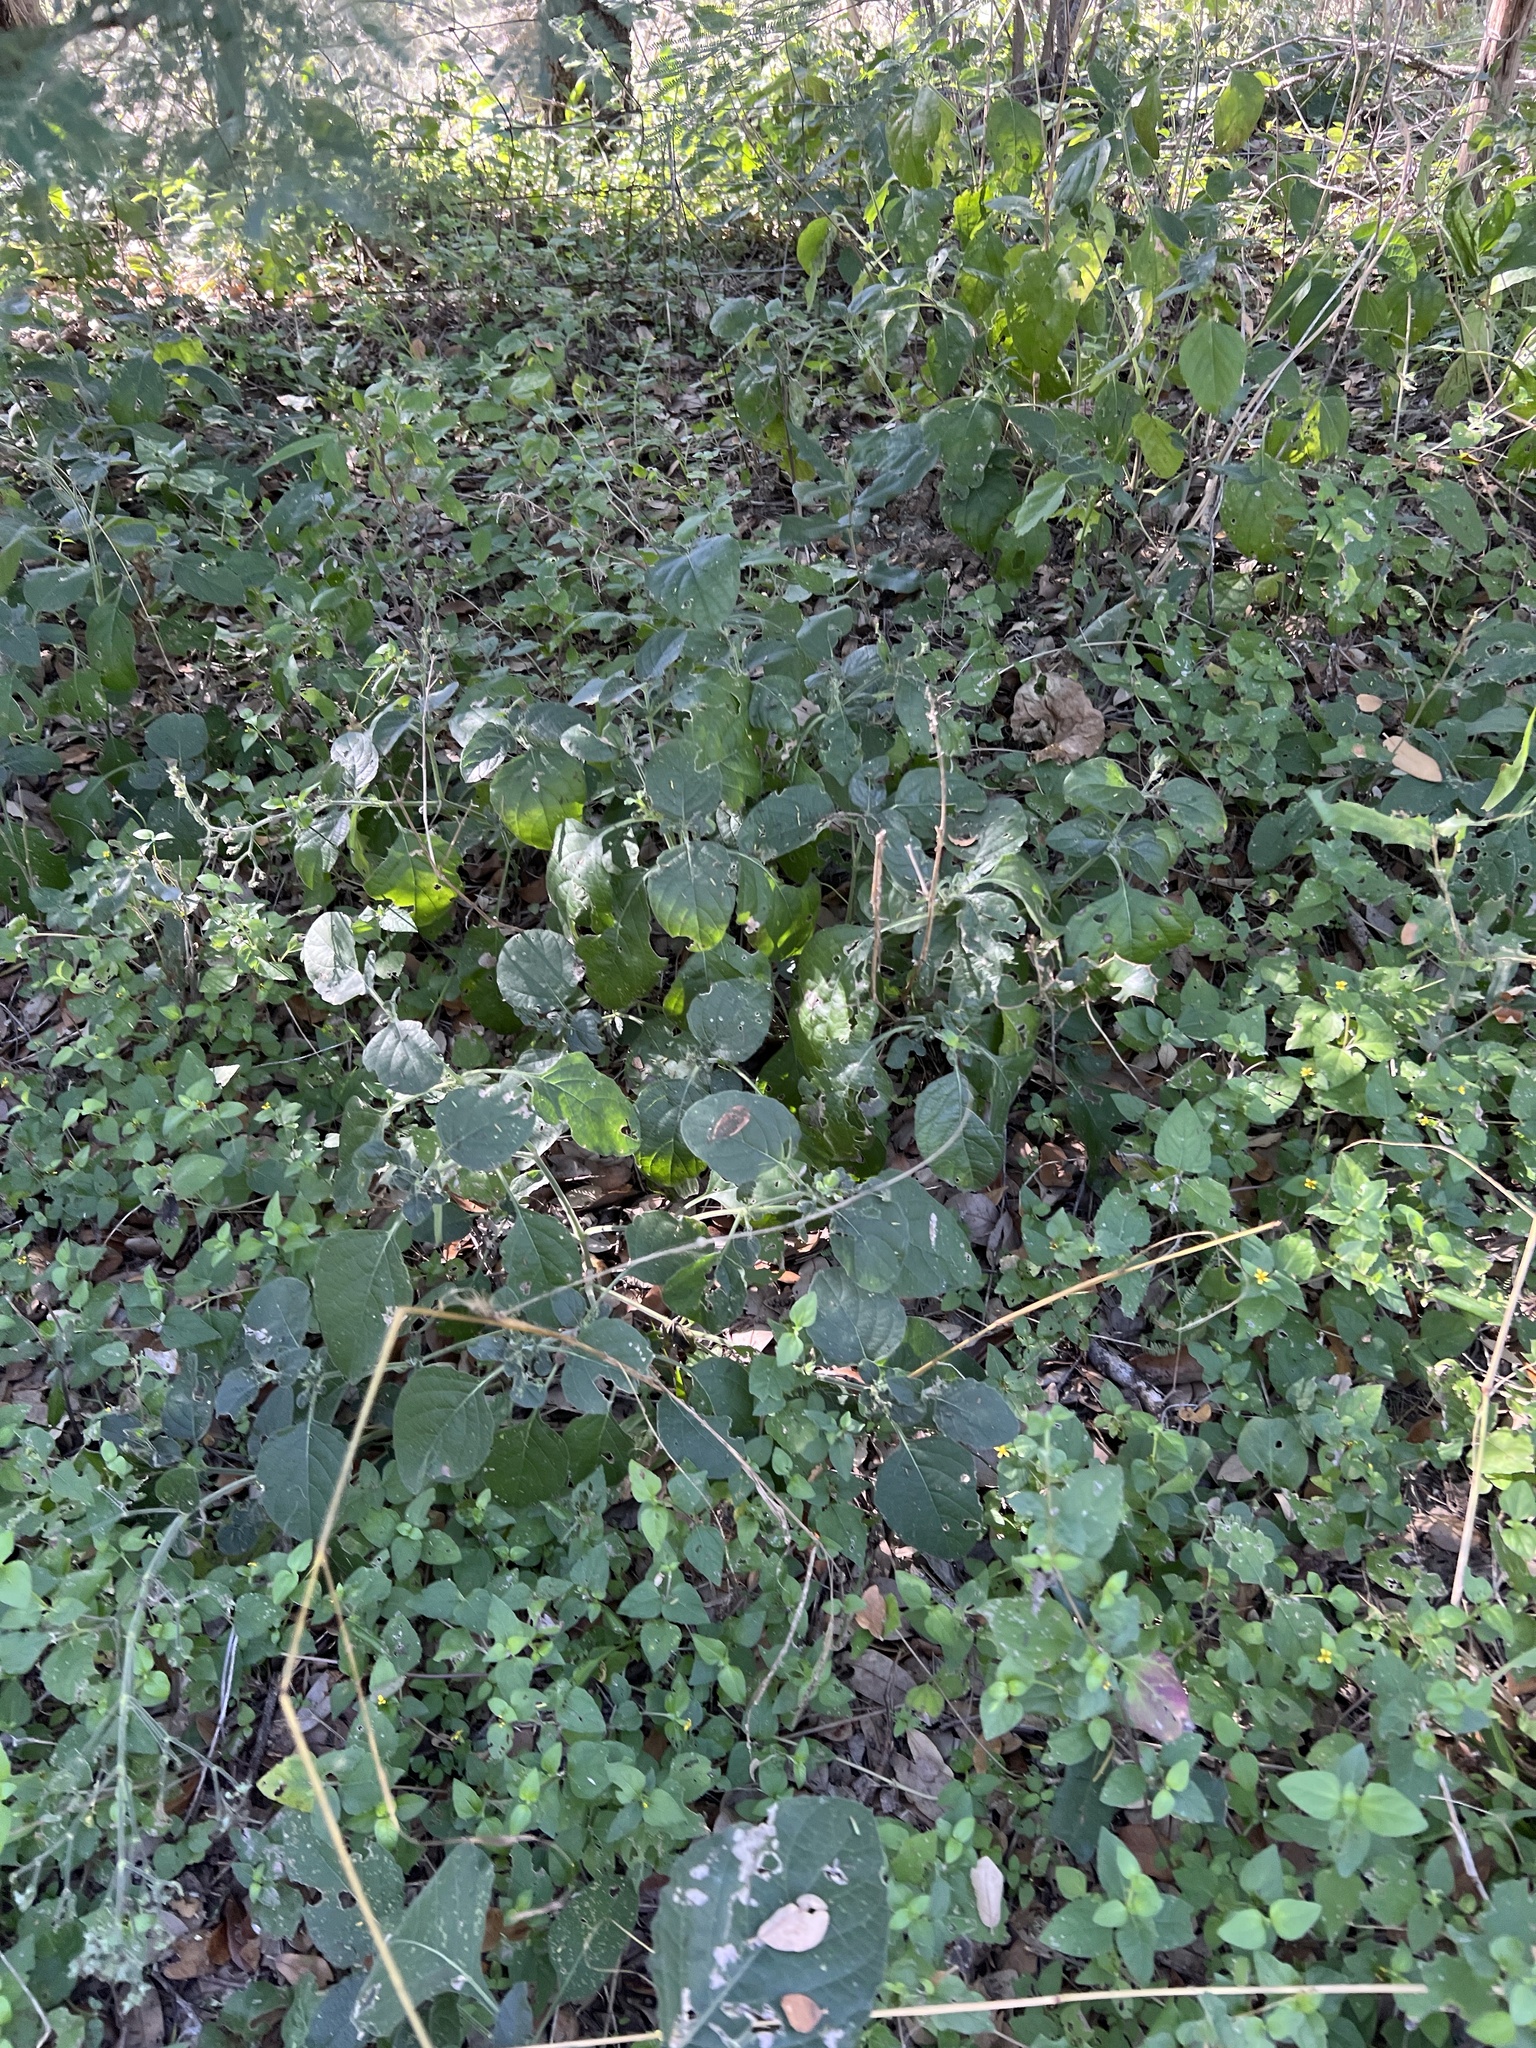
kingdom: Plantae
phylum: Tracheophyta
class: Magnoliopsida
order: Lamiales
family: Acanthaceae
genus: Ruellia
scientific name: Ruellia ciliatiflora
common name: Hairyflower wild petunia
